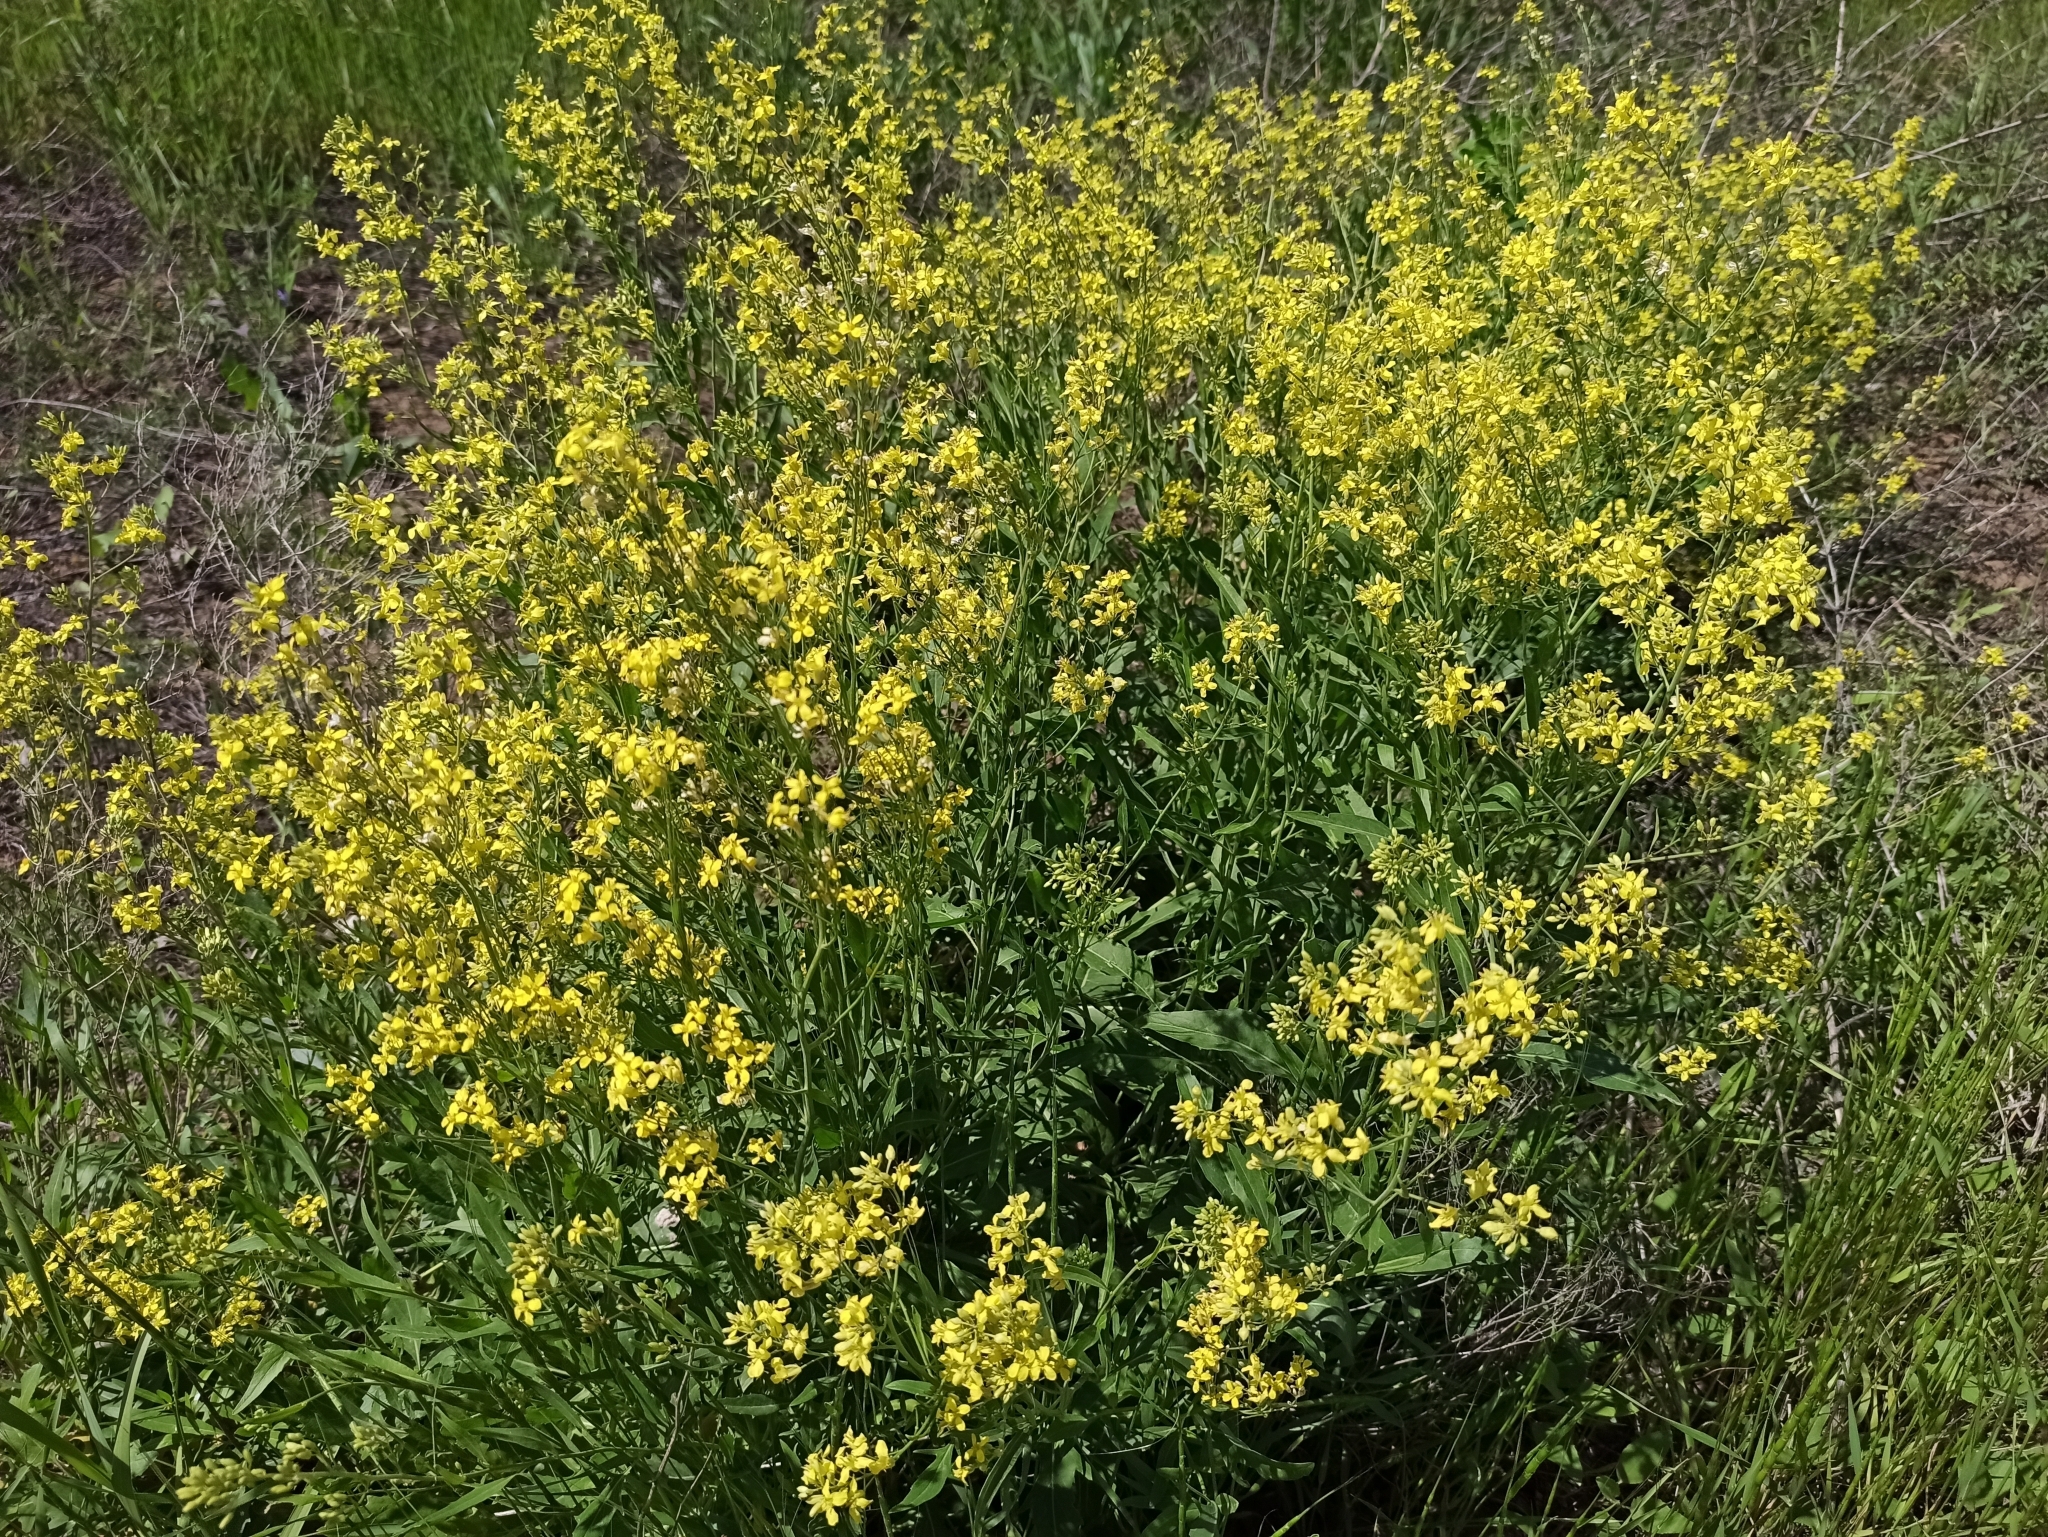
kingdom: Plantae
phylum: Tracheophyta
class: Magnoliopsida
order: Brassicales
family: Brassicaceae
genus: Sisymbrium
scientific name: Sisymbrium volgense
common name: Russian mustard
